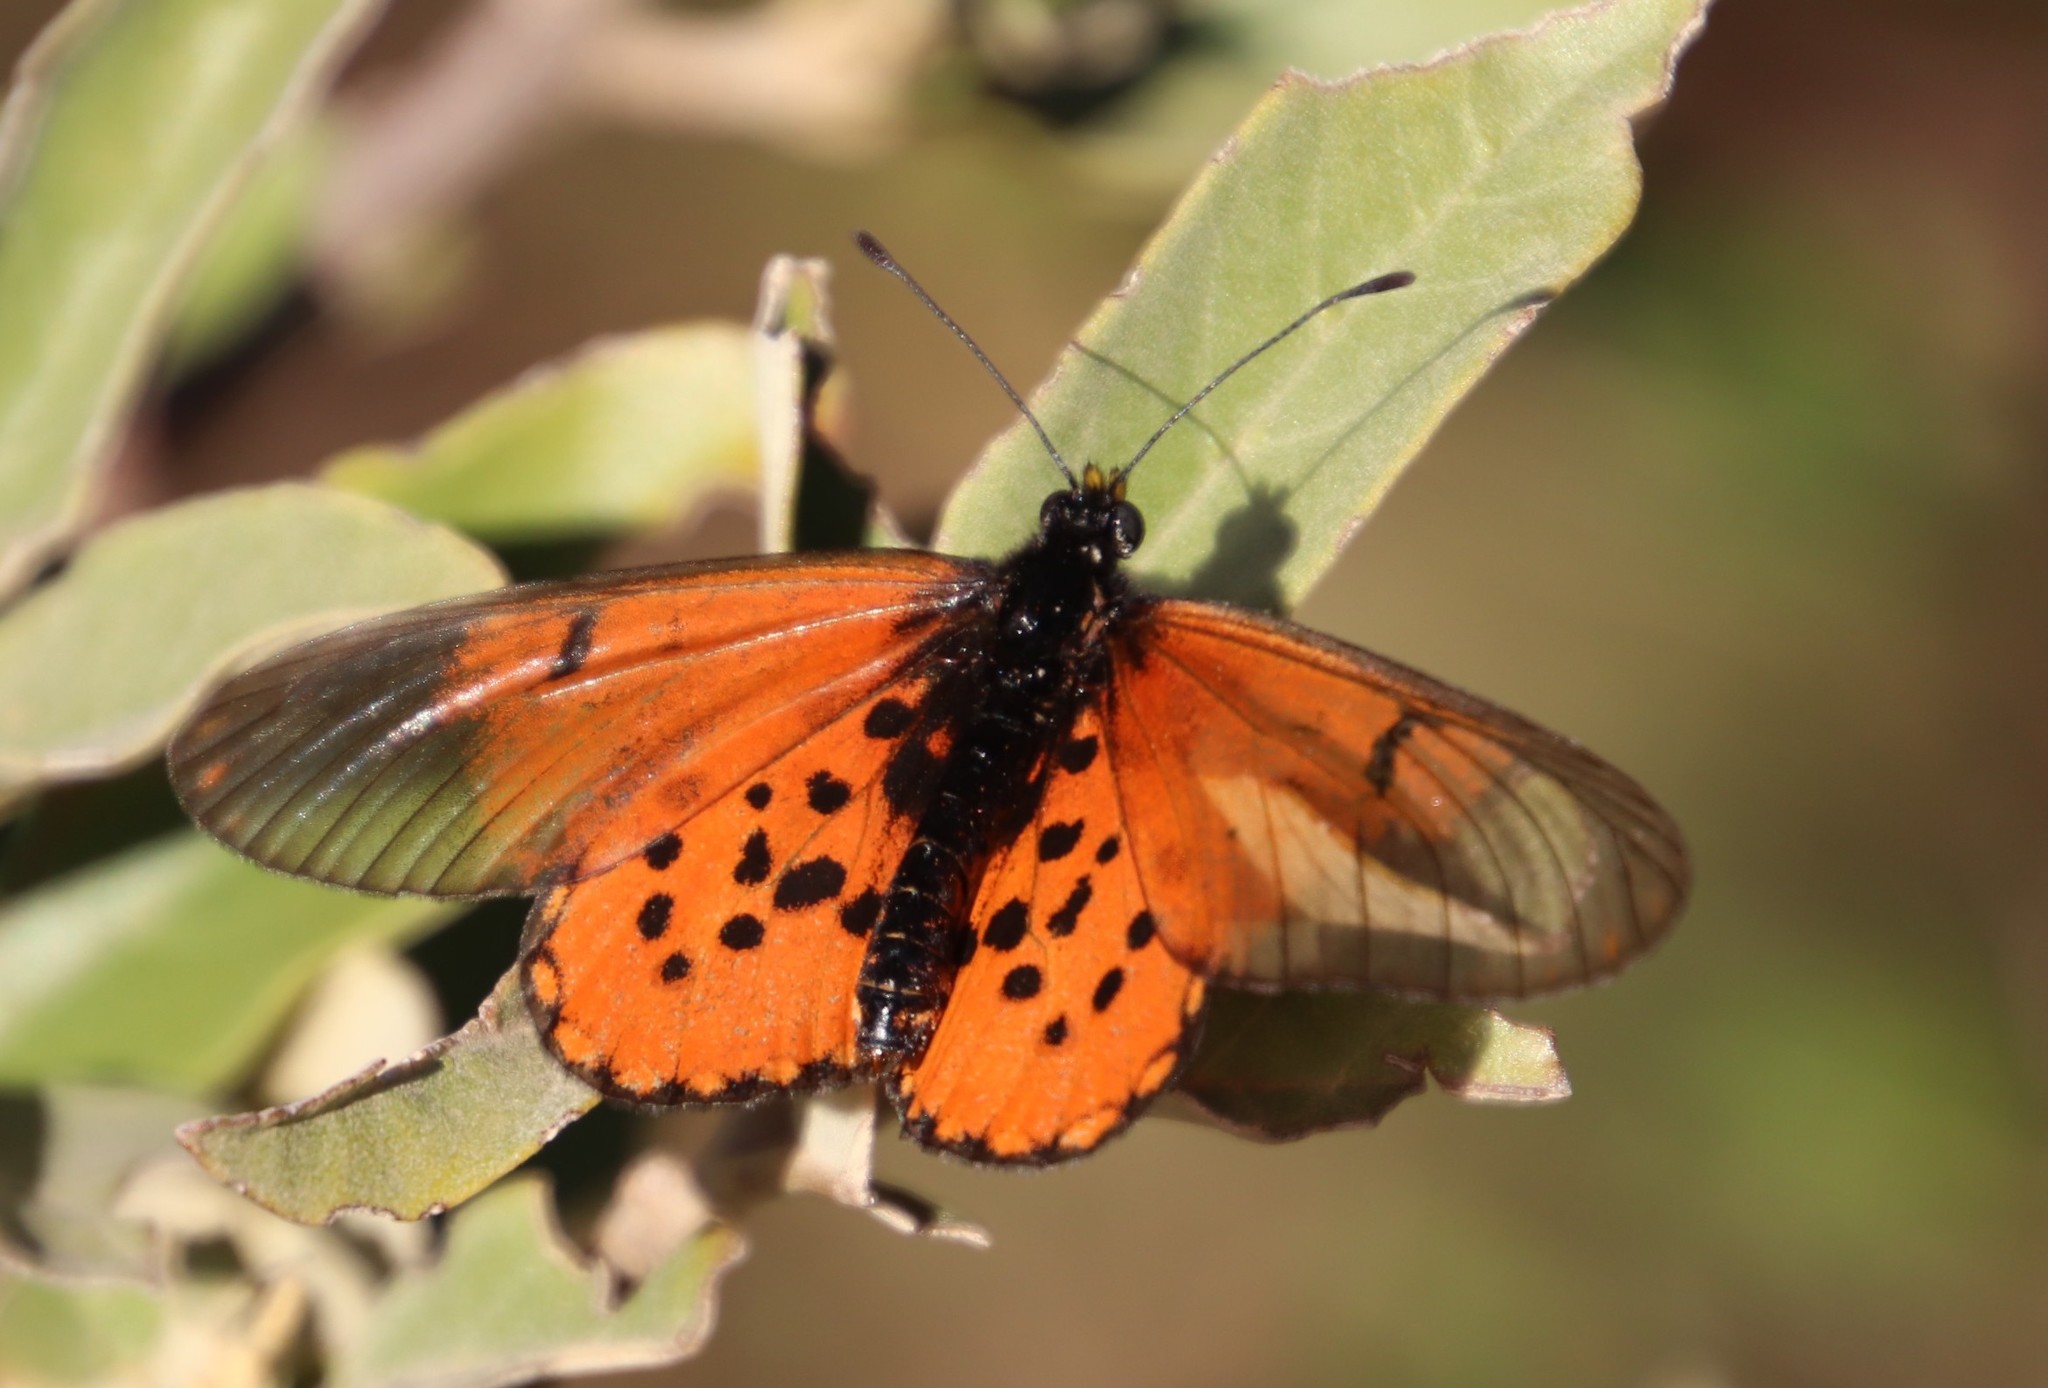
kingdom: Animalia
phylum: Arthropoda
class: Insecta
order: Lepidoptera
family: Nymphalidae
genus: Acraea
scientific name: Acraea horta
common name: Garden acraea
